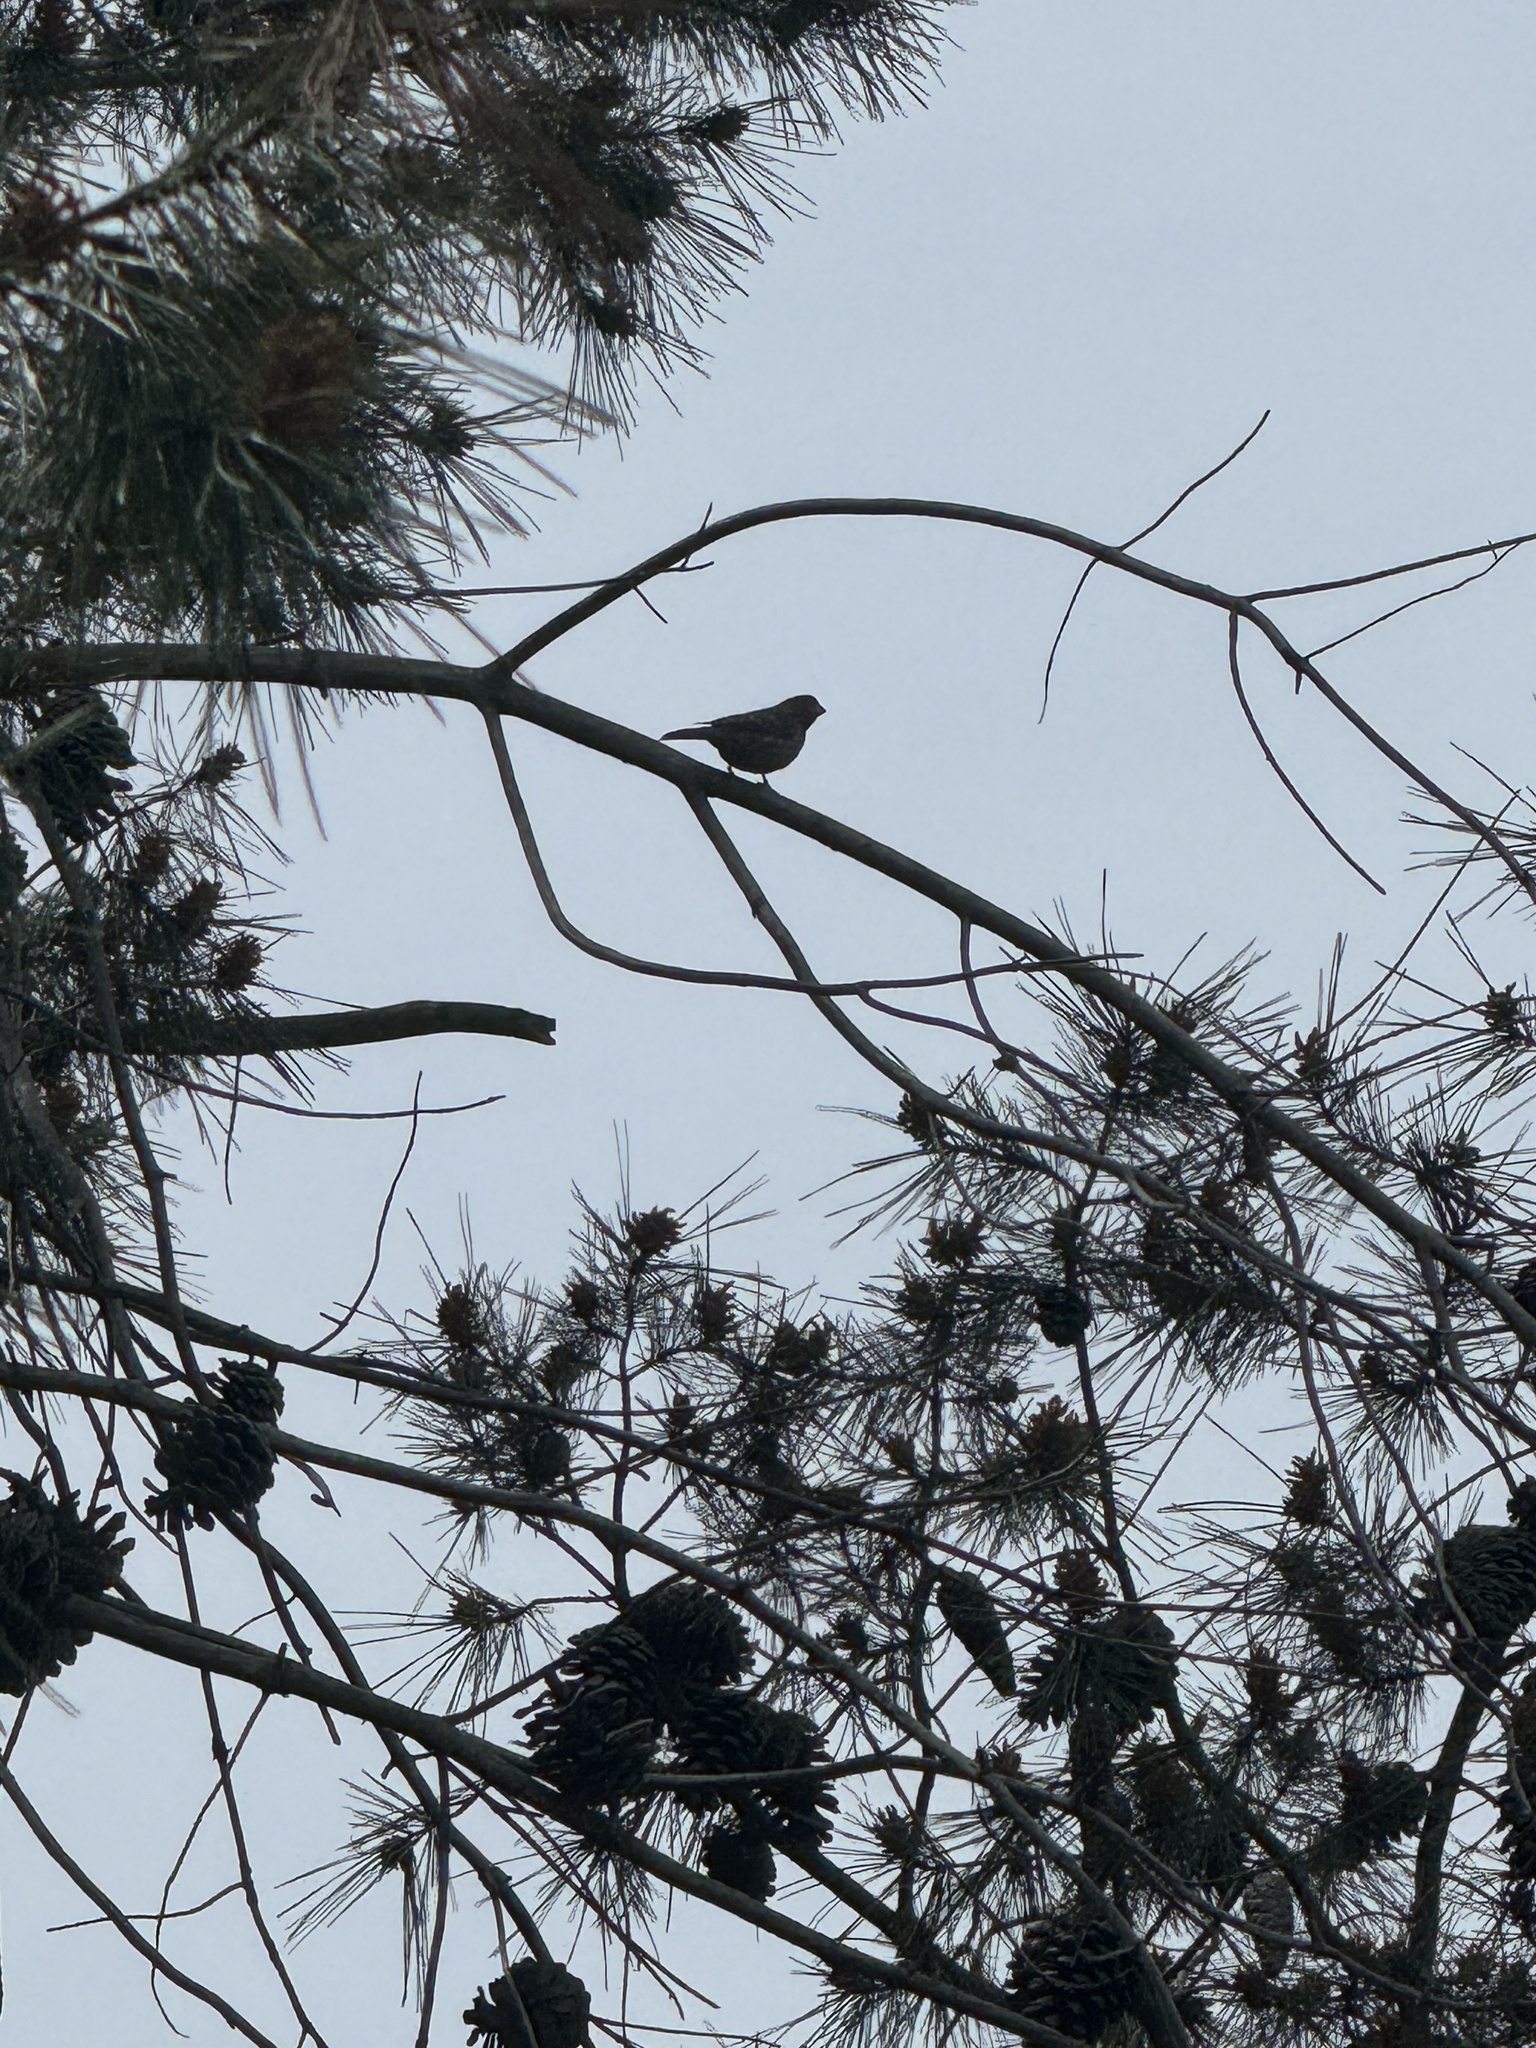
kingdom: Animalia
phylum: Chordata
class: Aves
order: Passeriformes
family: Fringillidae
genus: Haemorhous
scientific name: Haemorhous mexicanus
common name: House finch
